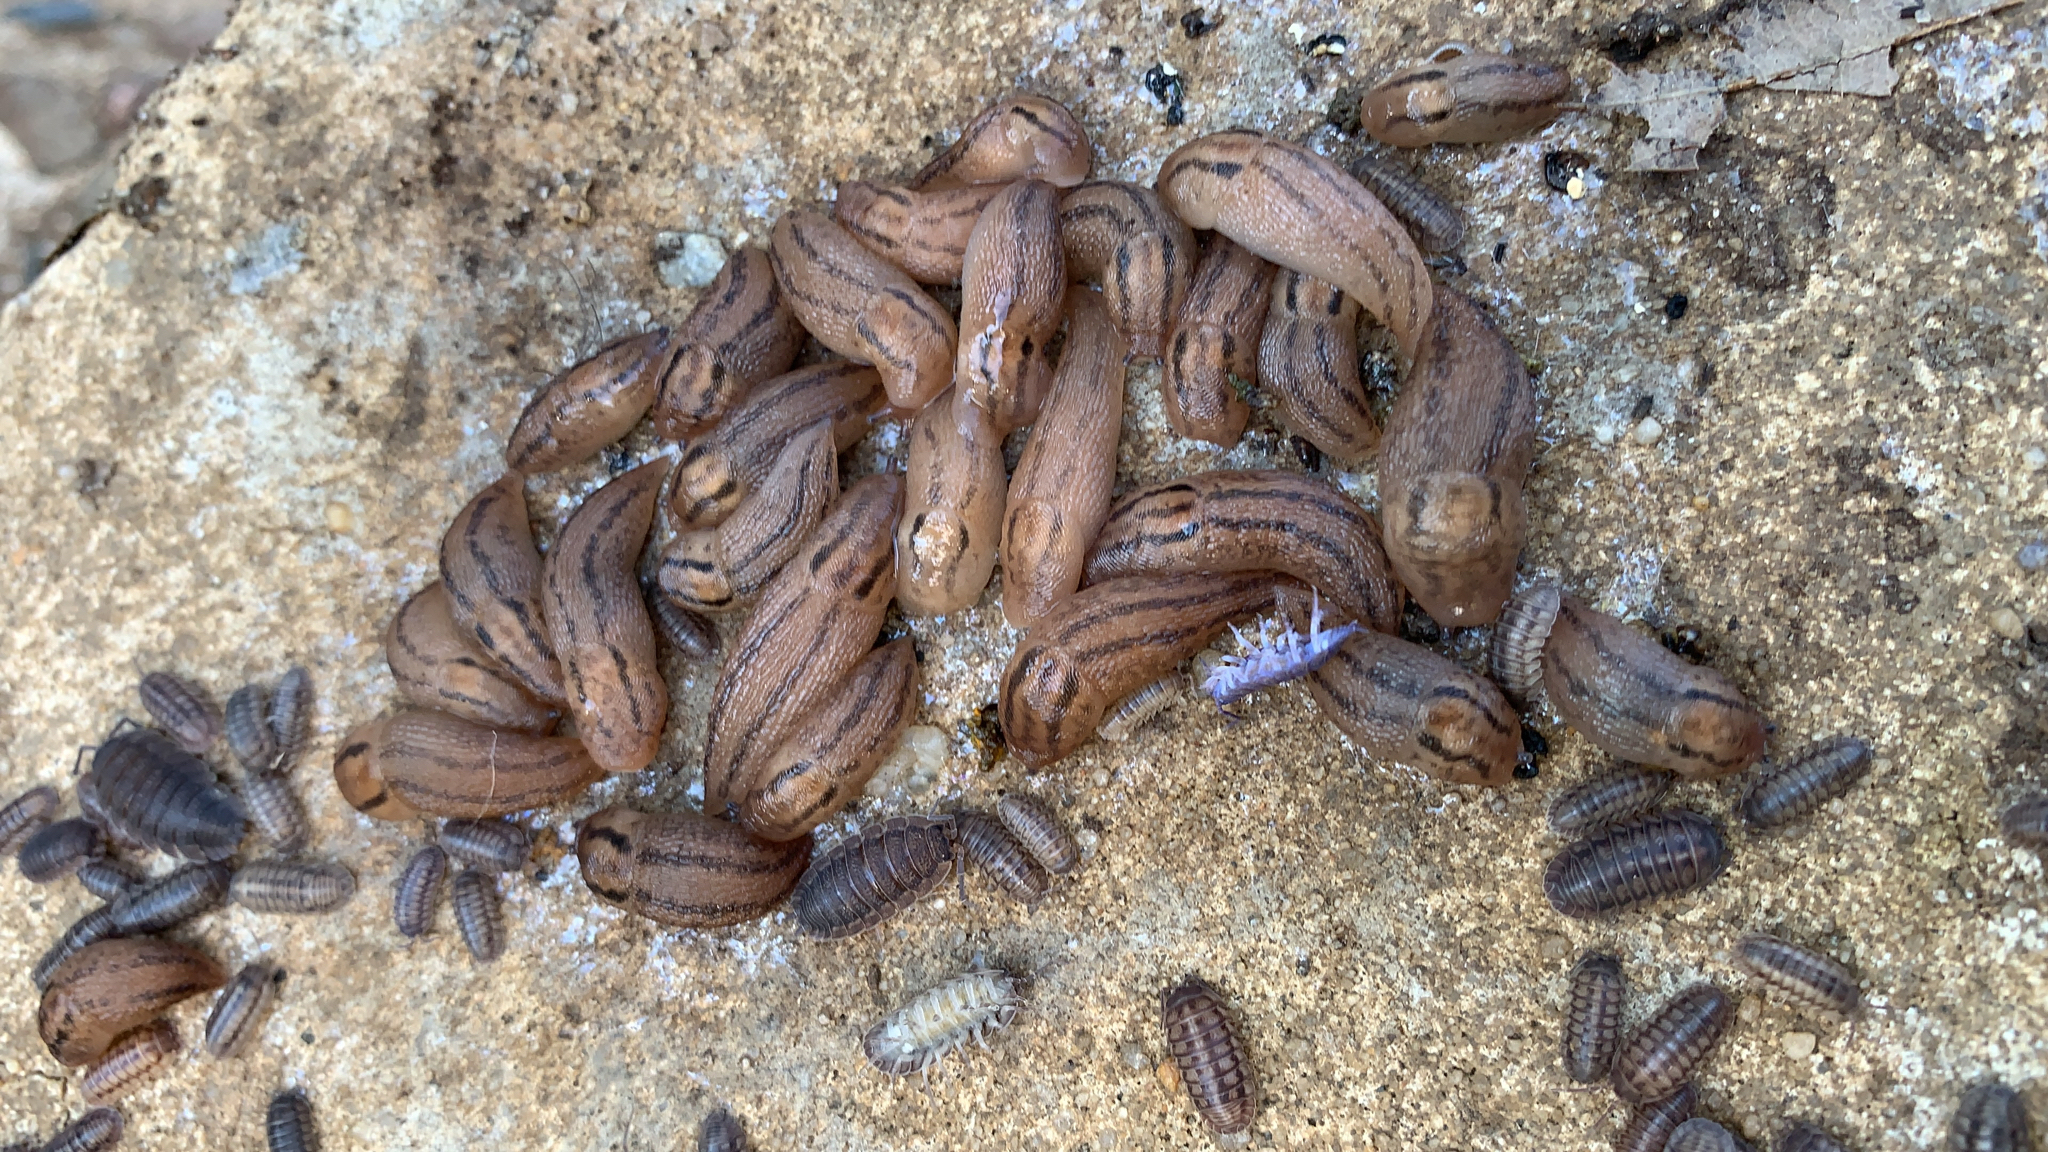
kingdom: Animalia
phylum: Mollusca
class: Gastropoda
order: Stylommatophora
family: Limacidae
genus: Ambigolimax
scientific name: Ambigolimax
